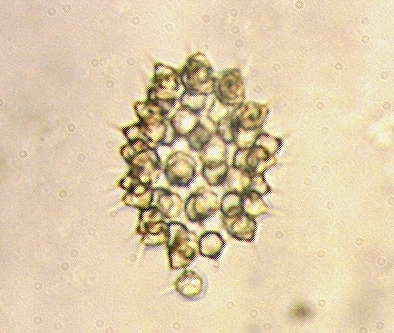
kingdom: Chromista
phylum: Ochrophyta
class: Xanthophyceae
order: Mischococcales
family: Botryochloridaceae
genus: Ducellieria
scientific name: Ducellieria chodatii
